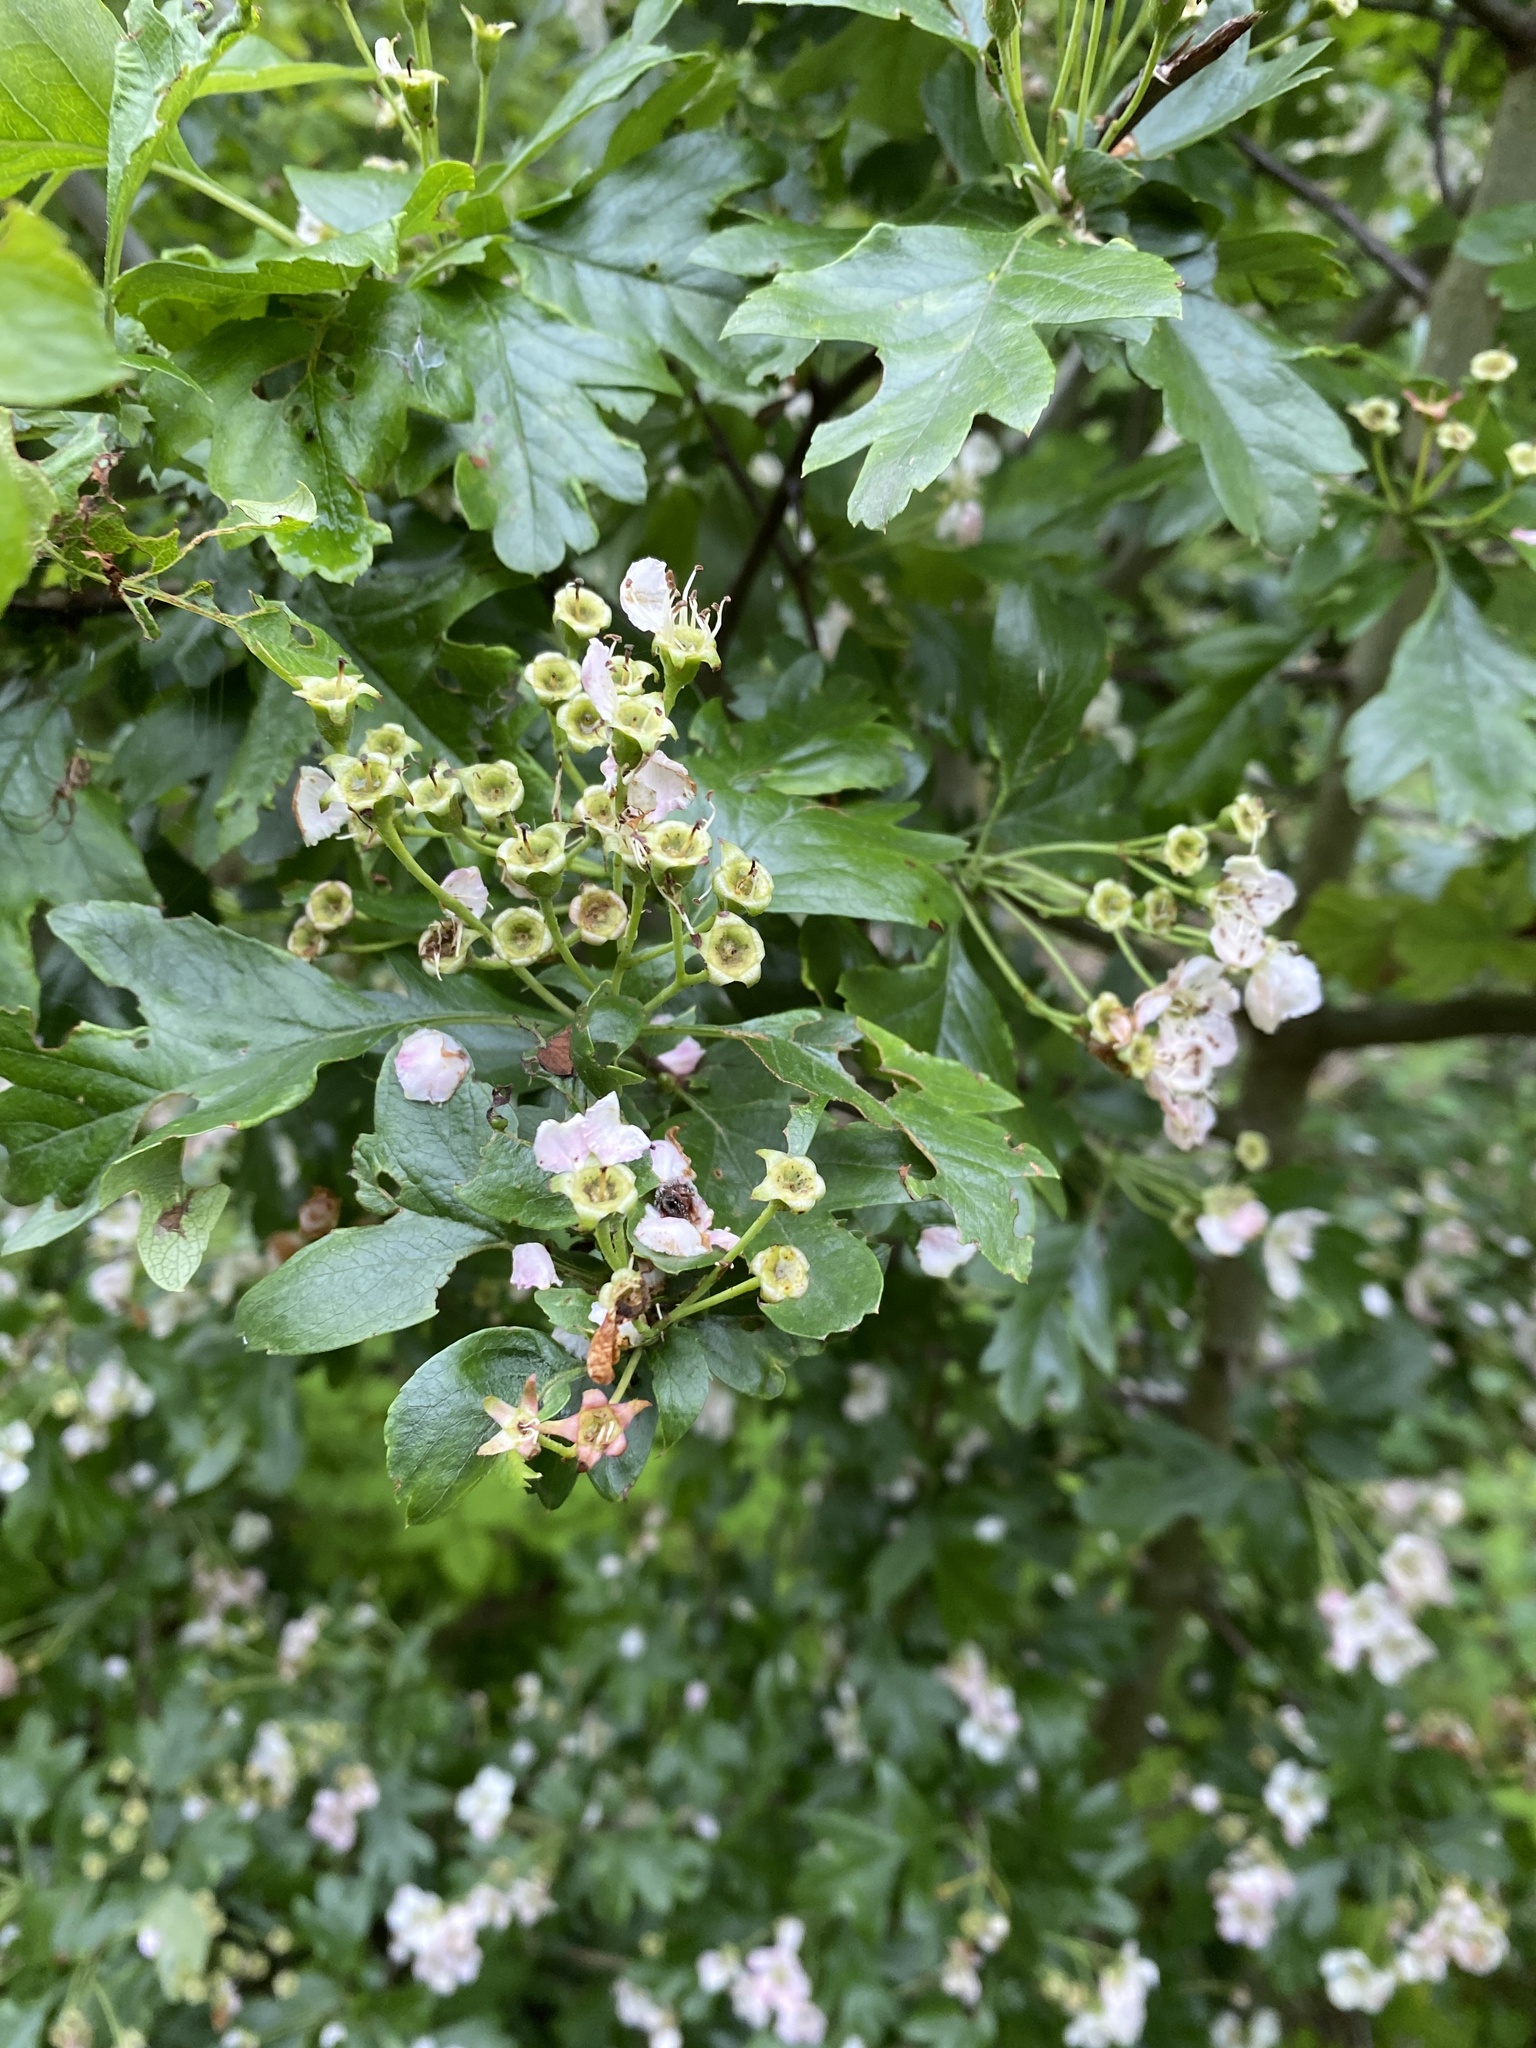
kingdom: Plantae
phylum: Tracheophyta
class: Magnoliopsida
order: Rosales
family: Rosaceae
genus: Crataegus
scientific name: Crataegus monogyna
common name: Hawthorn
